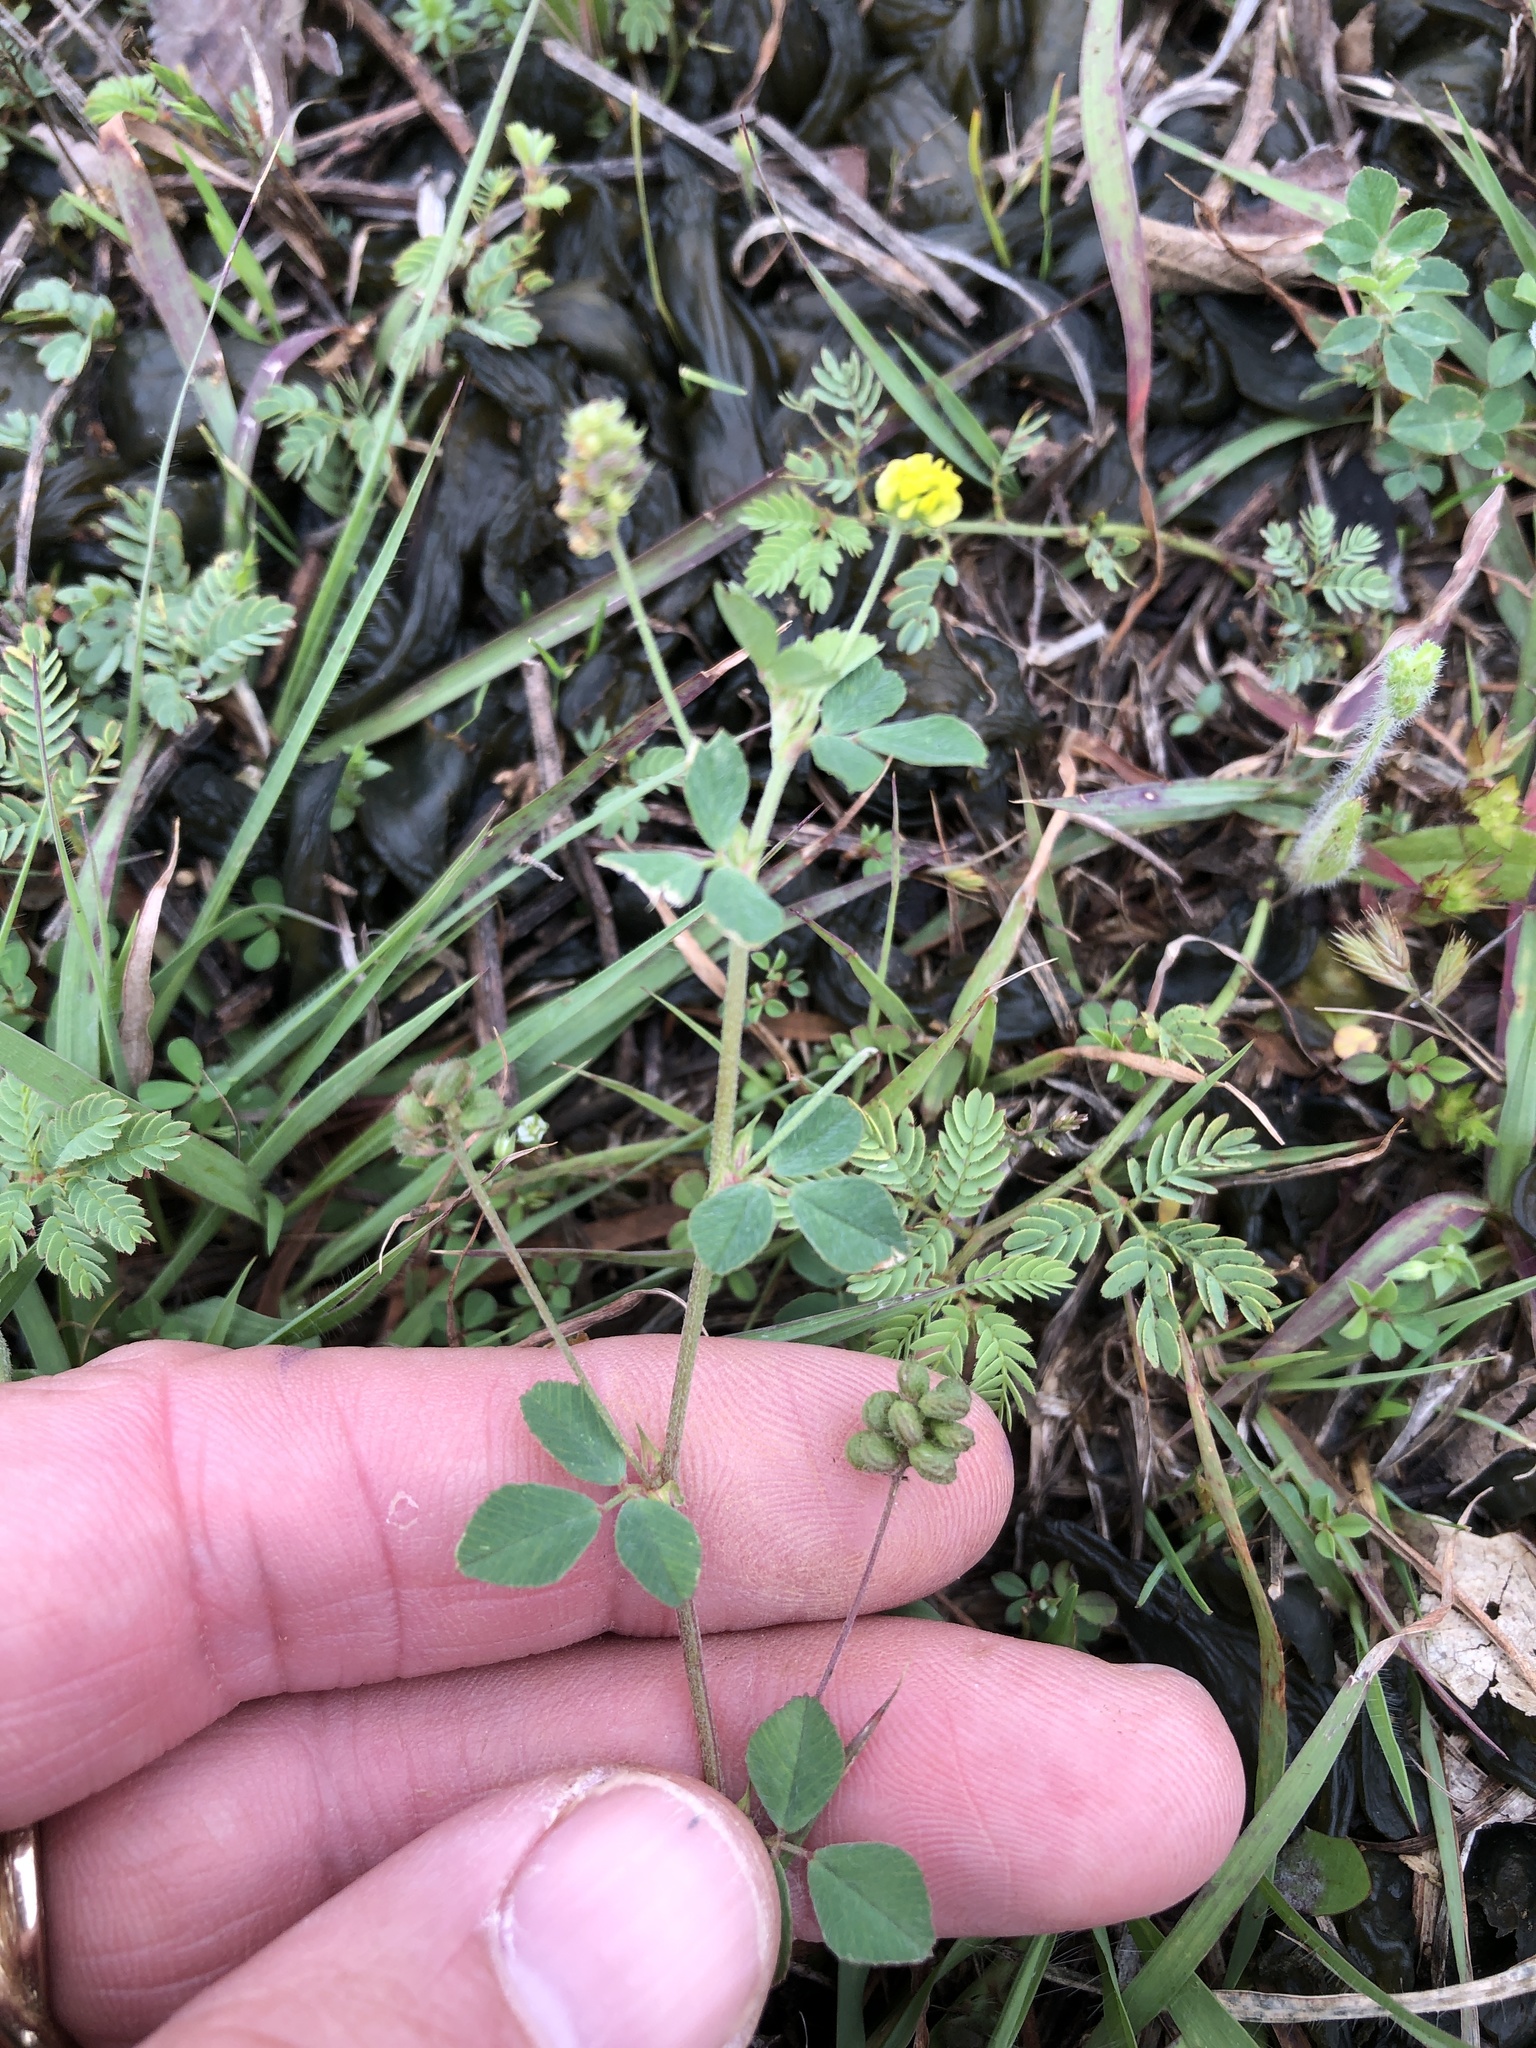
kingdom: Plantae
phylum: Tracheophyta
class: Magnoliopsida
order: Fabales
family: Fabaceae
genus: Medicago
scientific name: Medicago lupulina
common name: Black medick
